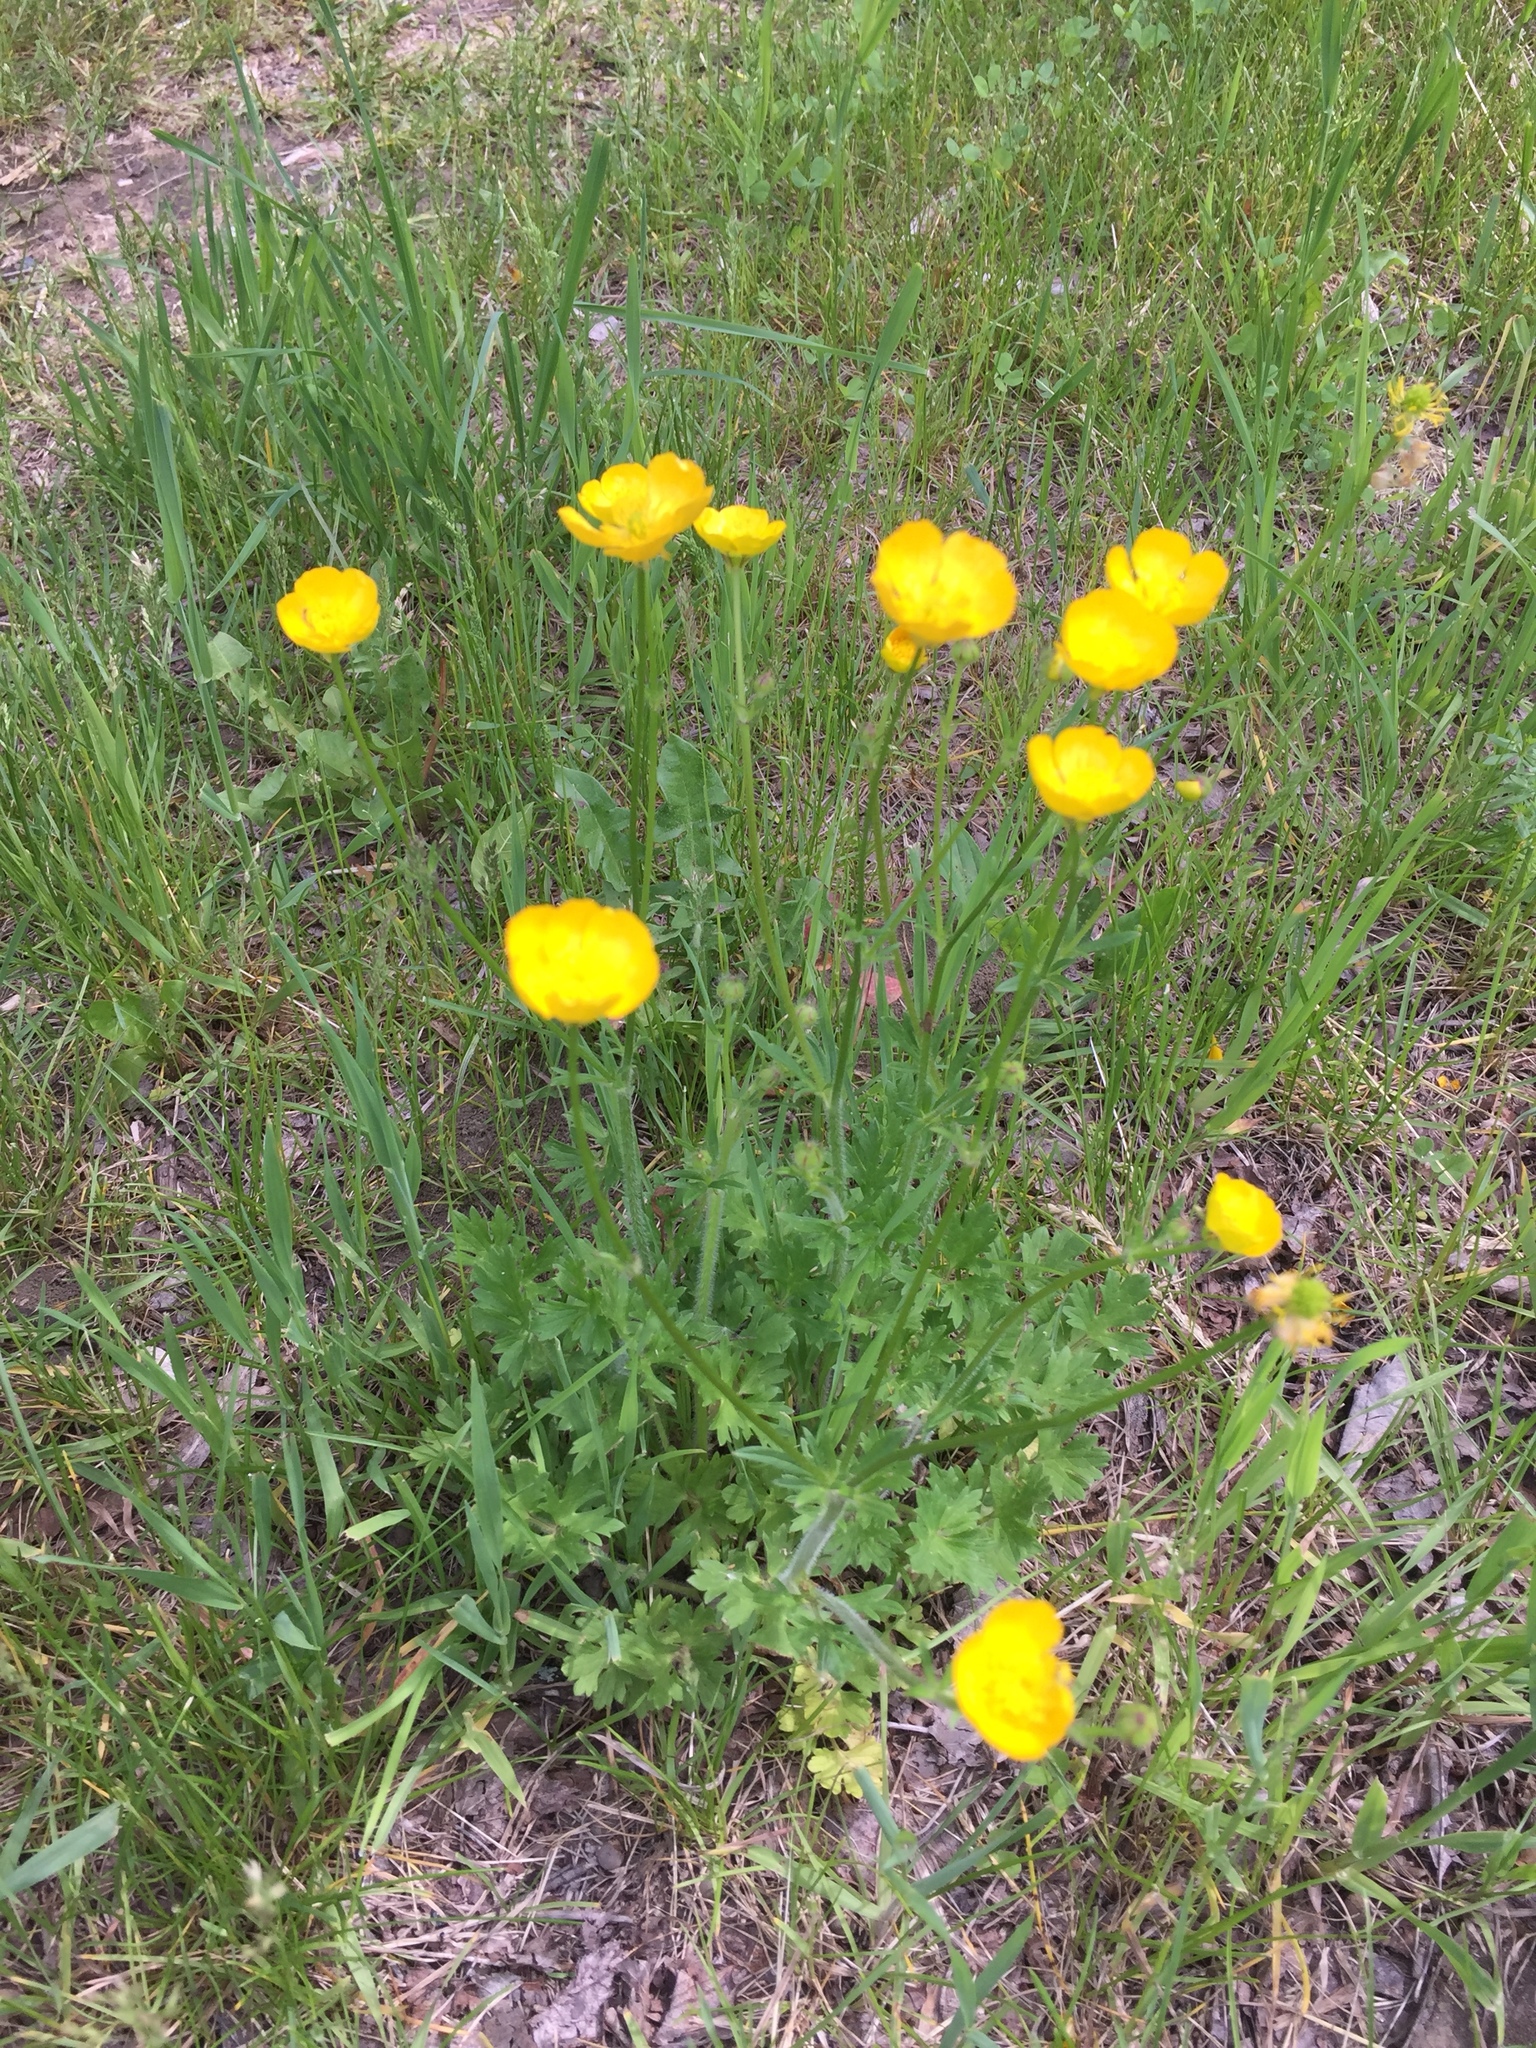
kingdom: Plantae
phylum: Tracheophyta
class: Magnoliopsida
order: Ranunculales
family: Ranunculaceae
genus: Ranunculus
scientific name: Ranunculus bulbosus
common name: Bulbous buttercup
